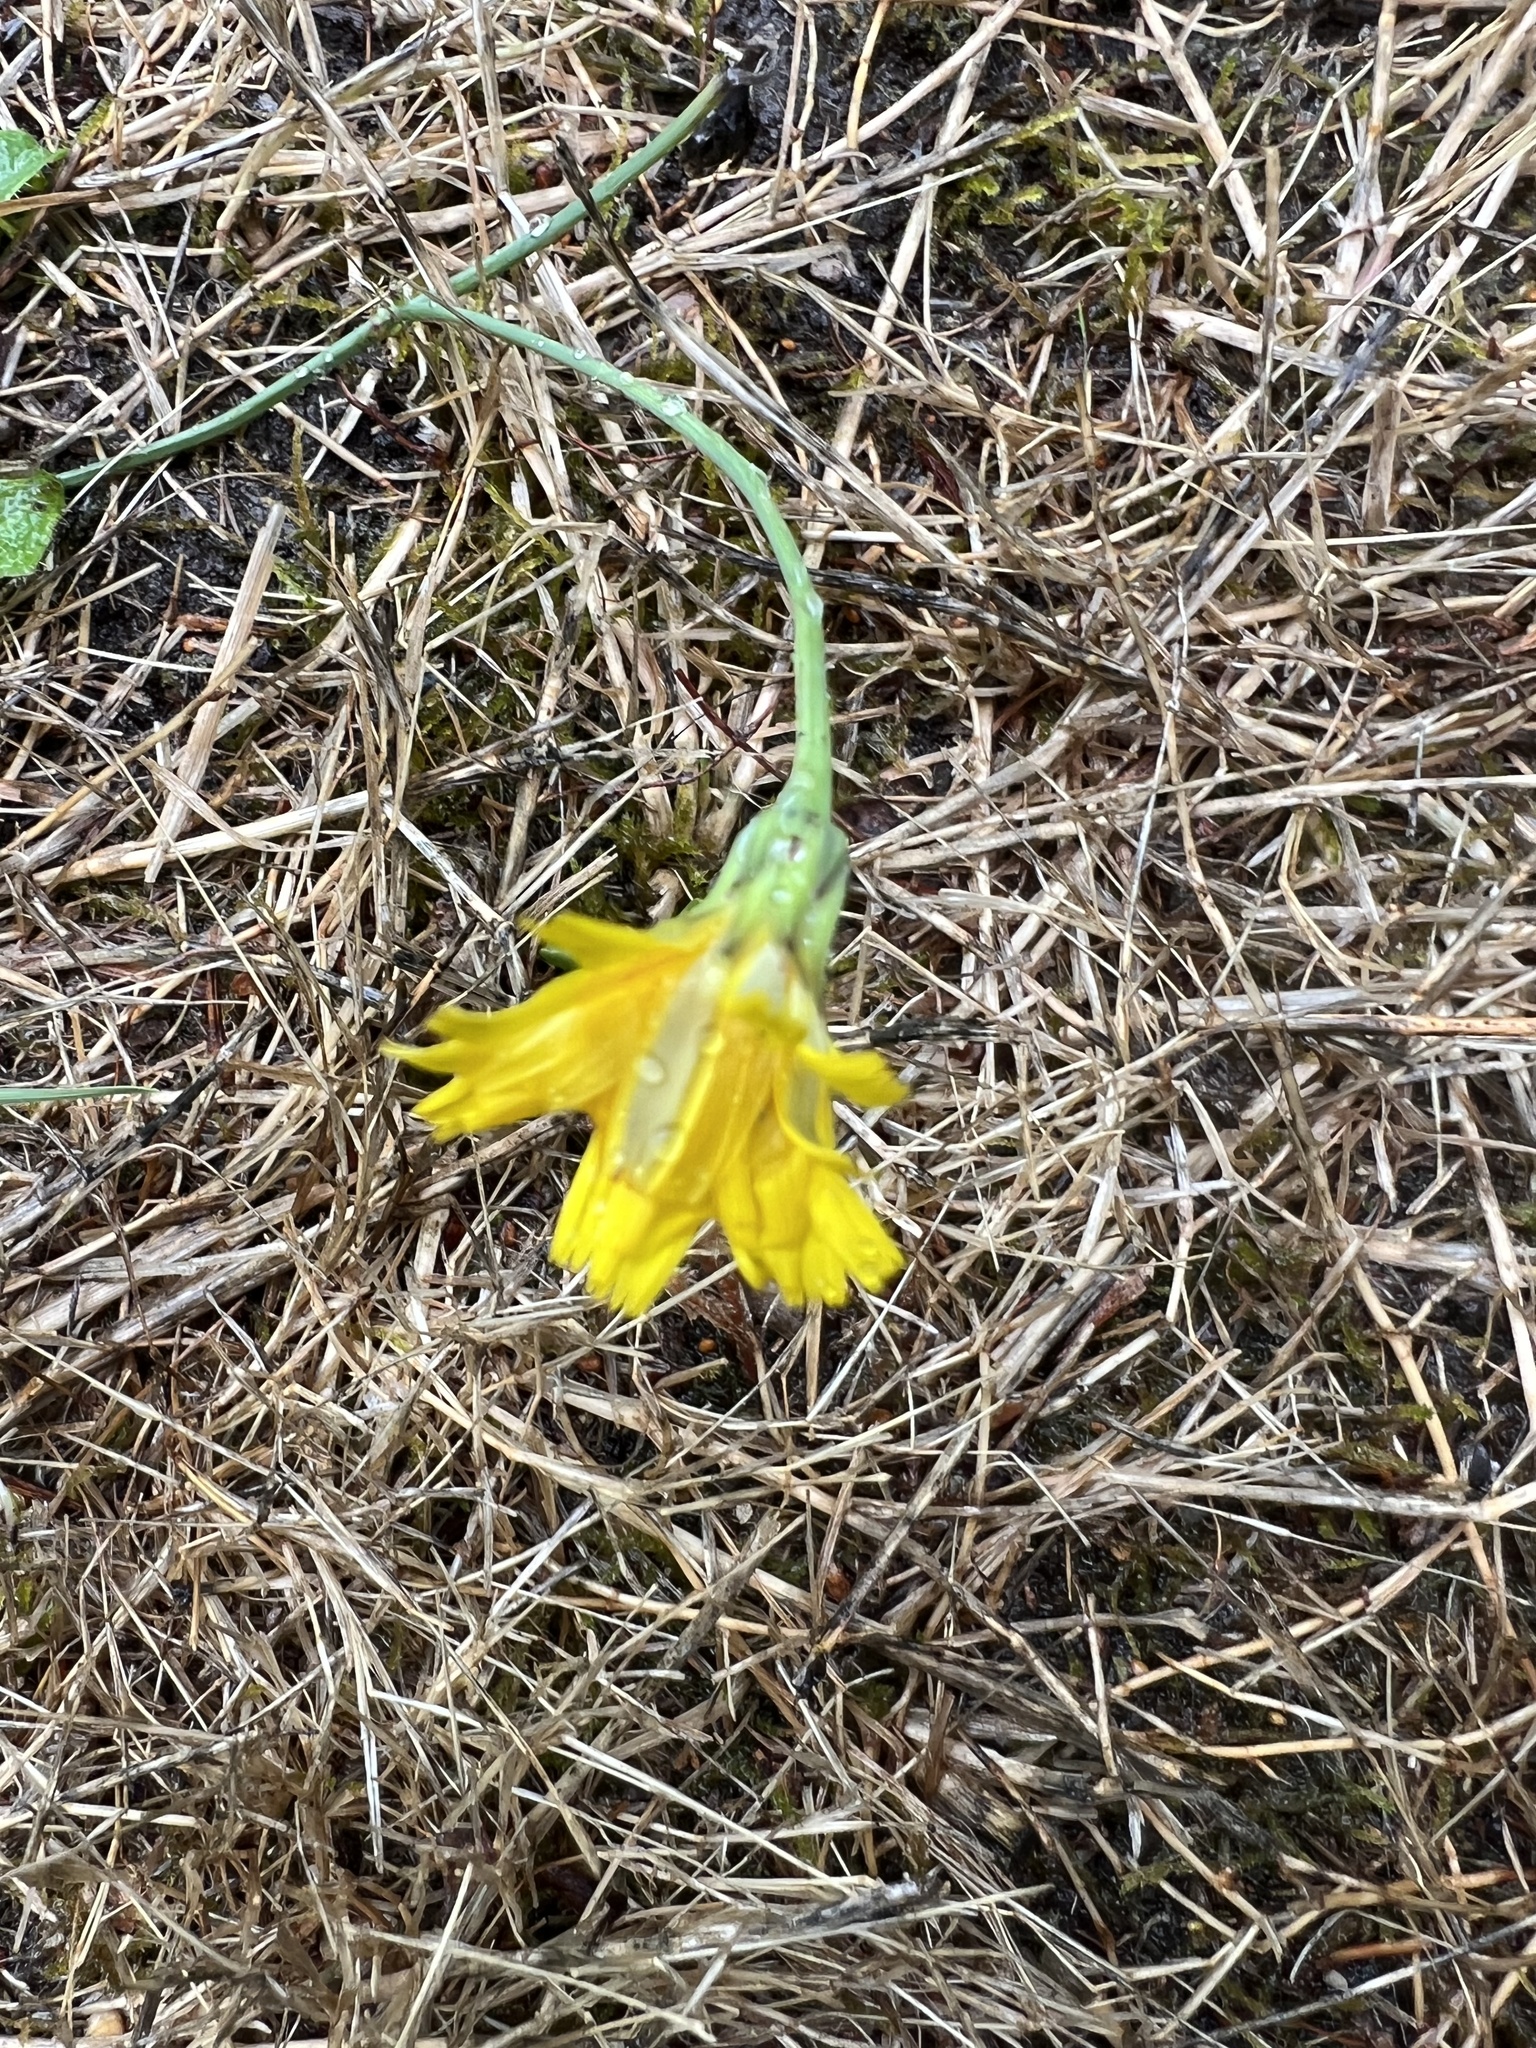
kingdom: Plantae
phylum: Tracheophyta
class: Magnoliopsida
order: Asterales
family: Asteraceae
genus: Hypochaeris
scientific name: Hypochaeris radicata
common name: Flatweed
